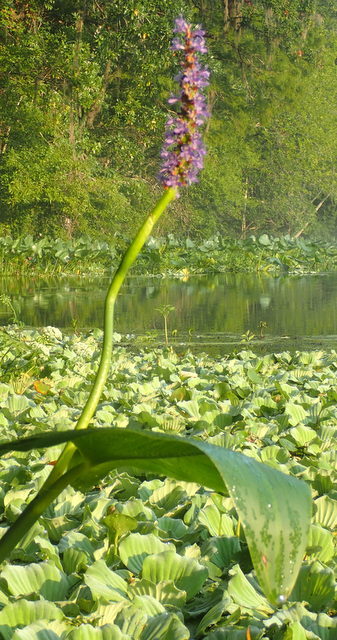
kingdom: Plantae
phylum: Tracheophyta
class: Liliopsida
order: Commelinales
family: Pontederiaceae
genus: Pontederia
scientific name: Pontederia cordata
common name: Pickerelweed
